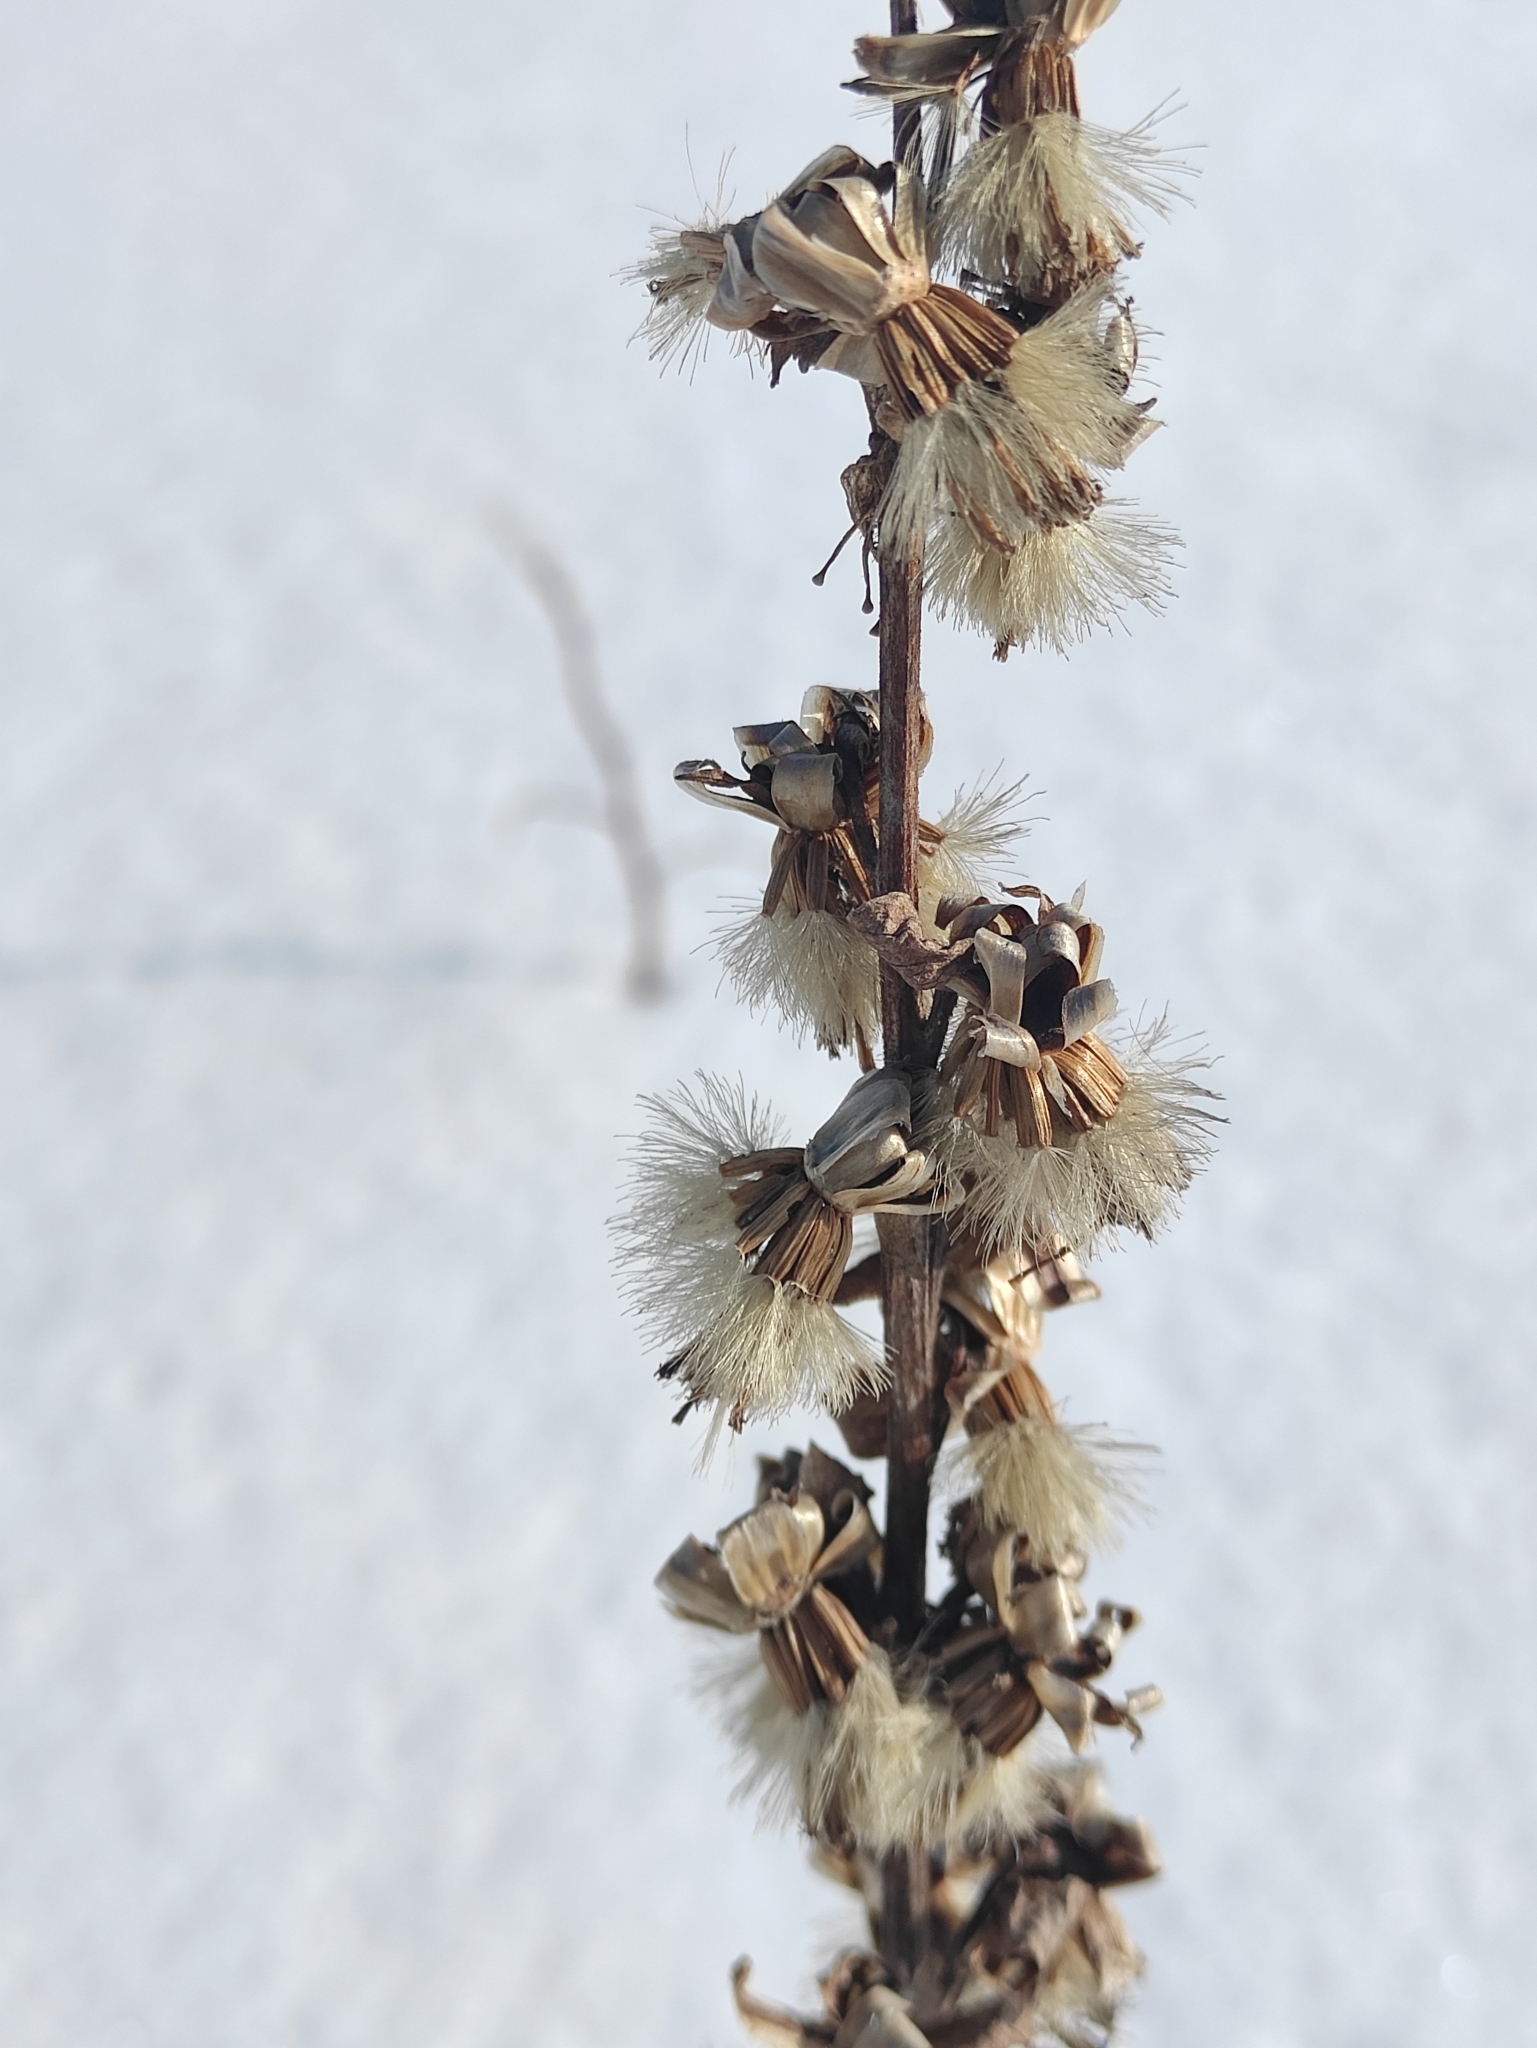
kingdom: Plantae
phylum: Tracheophyta
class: Magnoliopsida
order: Asterales
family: Asteraceae
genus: Ligularia
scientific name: Ligularia sibirica
